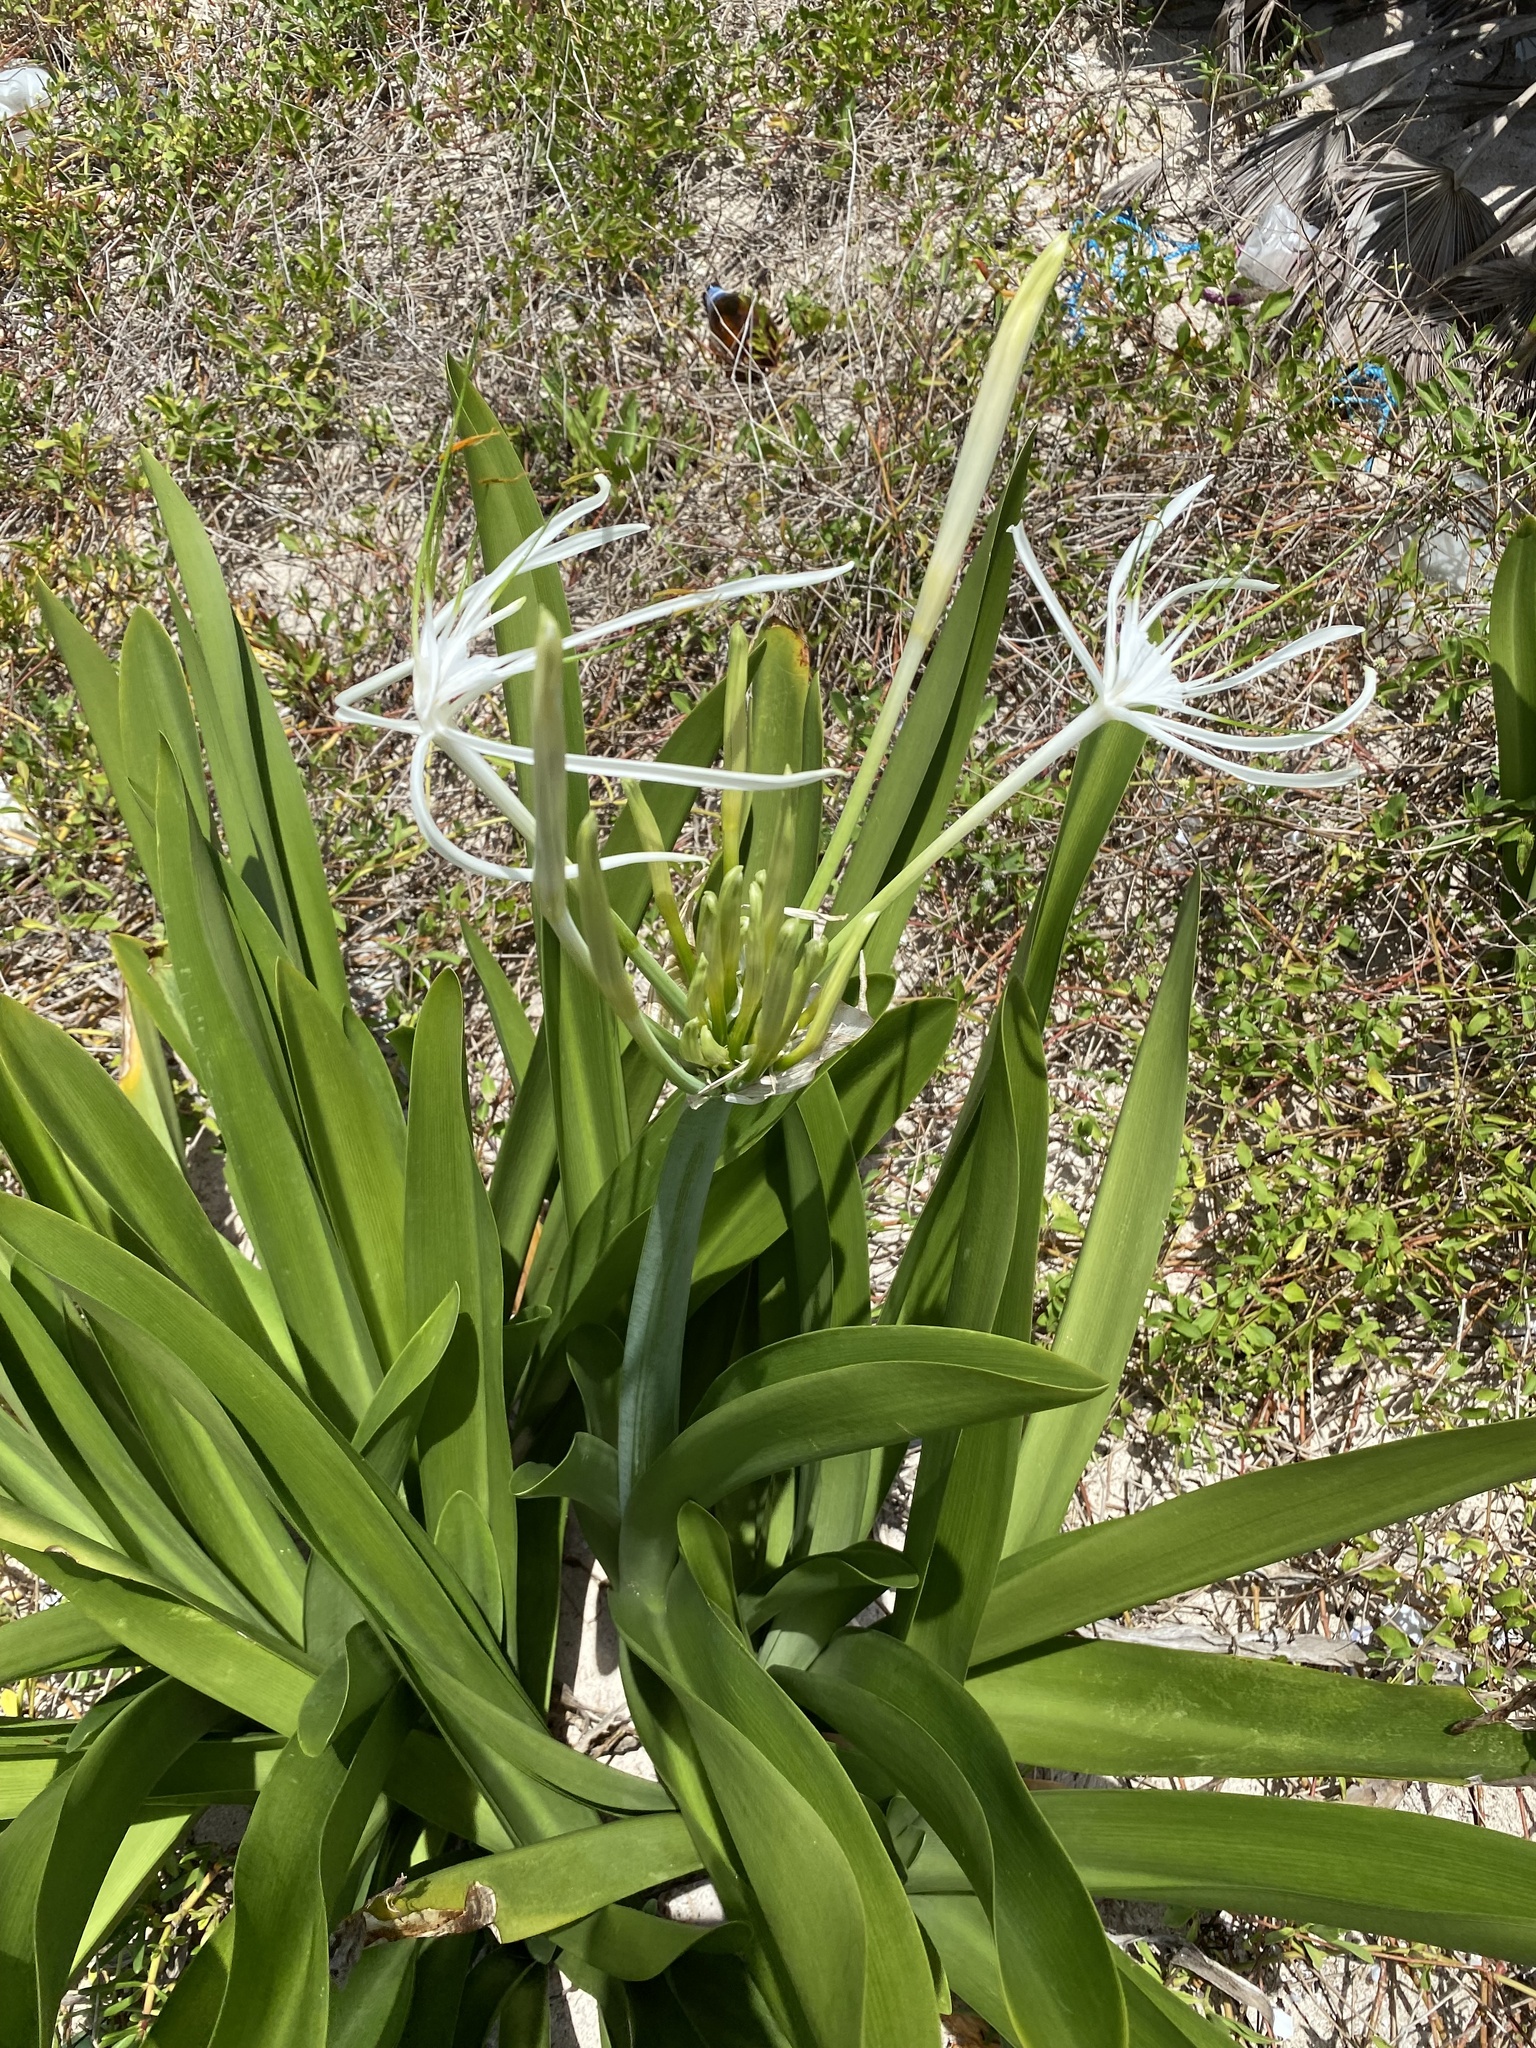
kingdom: Plantae
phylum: Tracheophyta
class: Liliopsida
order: Asparagales
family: Amaryllidaceae
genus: Hymenocallis
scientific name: Hymenocallis littoralis
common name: Beach spiderlily
